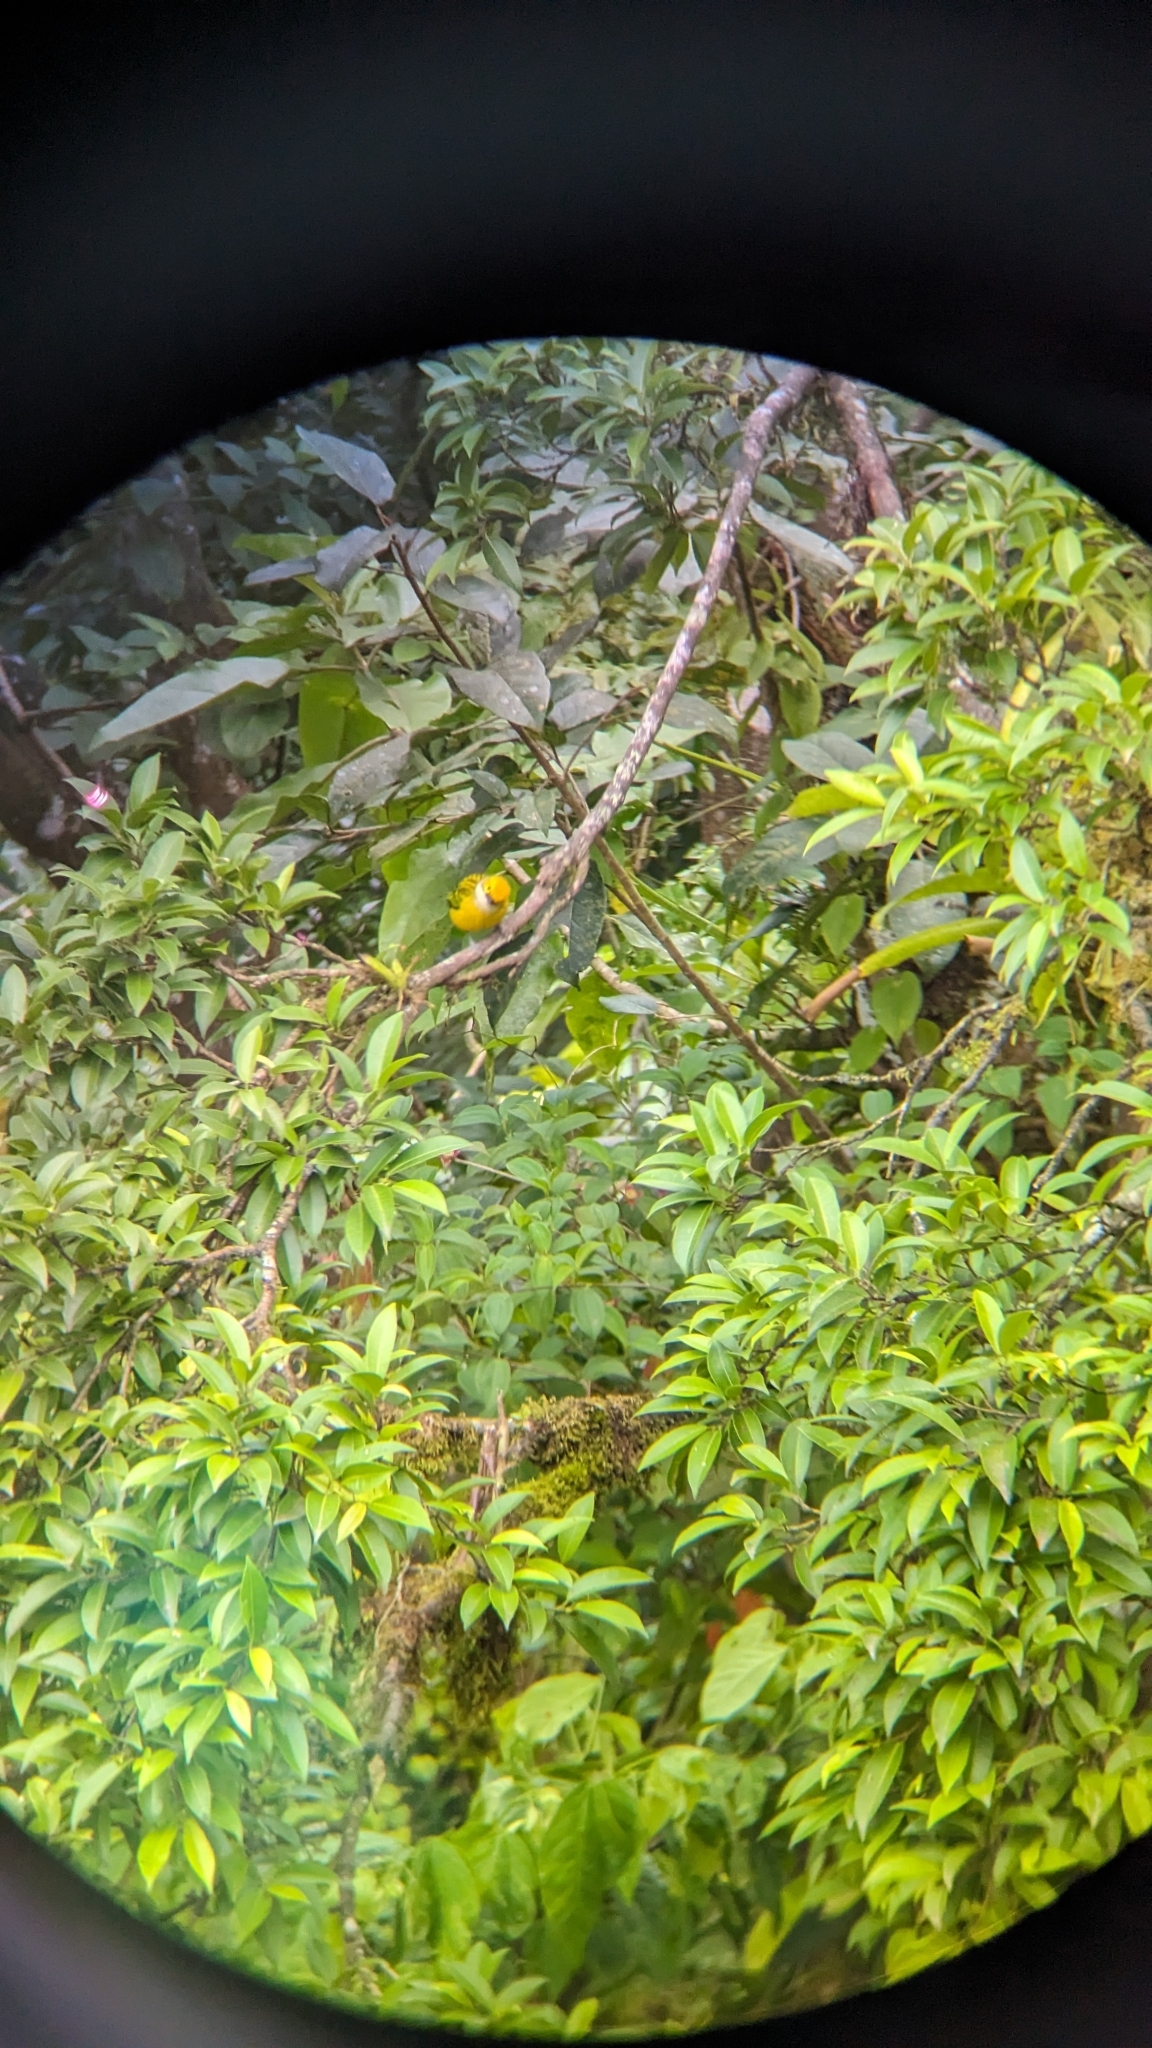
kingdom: Animalia
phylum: Chordata
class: Aves
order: Passeriformes
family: Thraupidae
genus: Tangara
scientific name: Tangara icterocephala
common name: Silver-throated tanager
